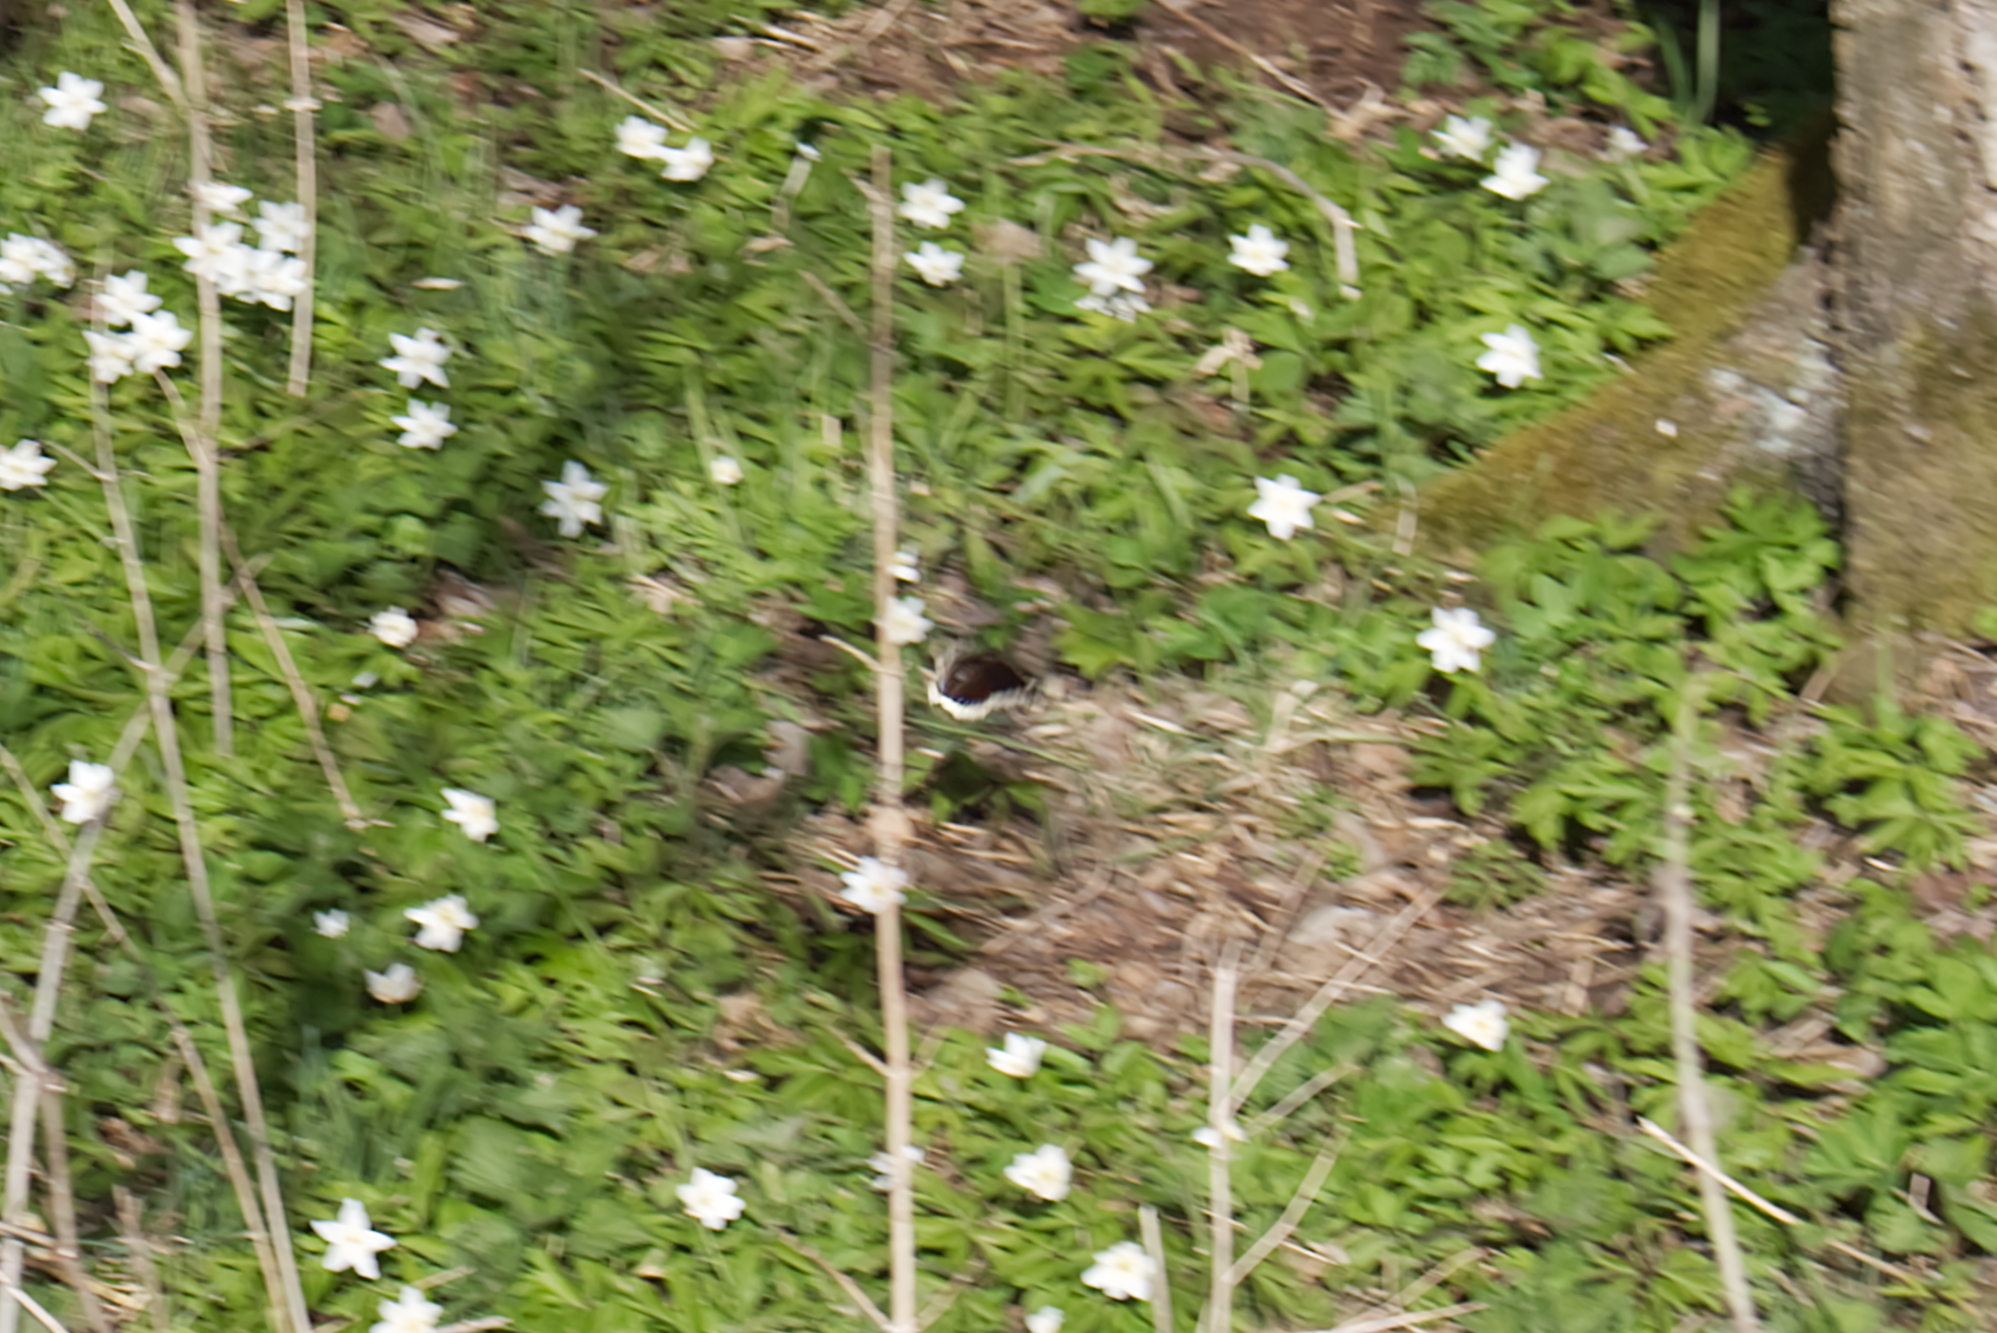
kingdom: Animalia
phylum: Arthropoda
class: Insecta
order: Lepidoptera
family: Nymphalidae
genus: Nymphalis
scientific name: Nymphalis antiopa
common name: Camberwell beauty
